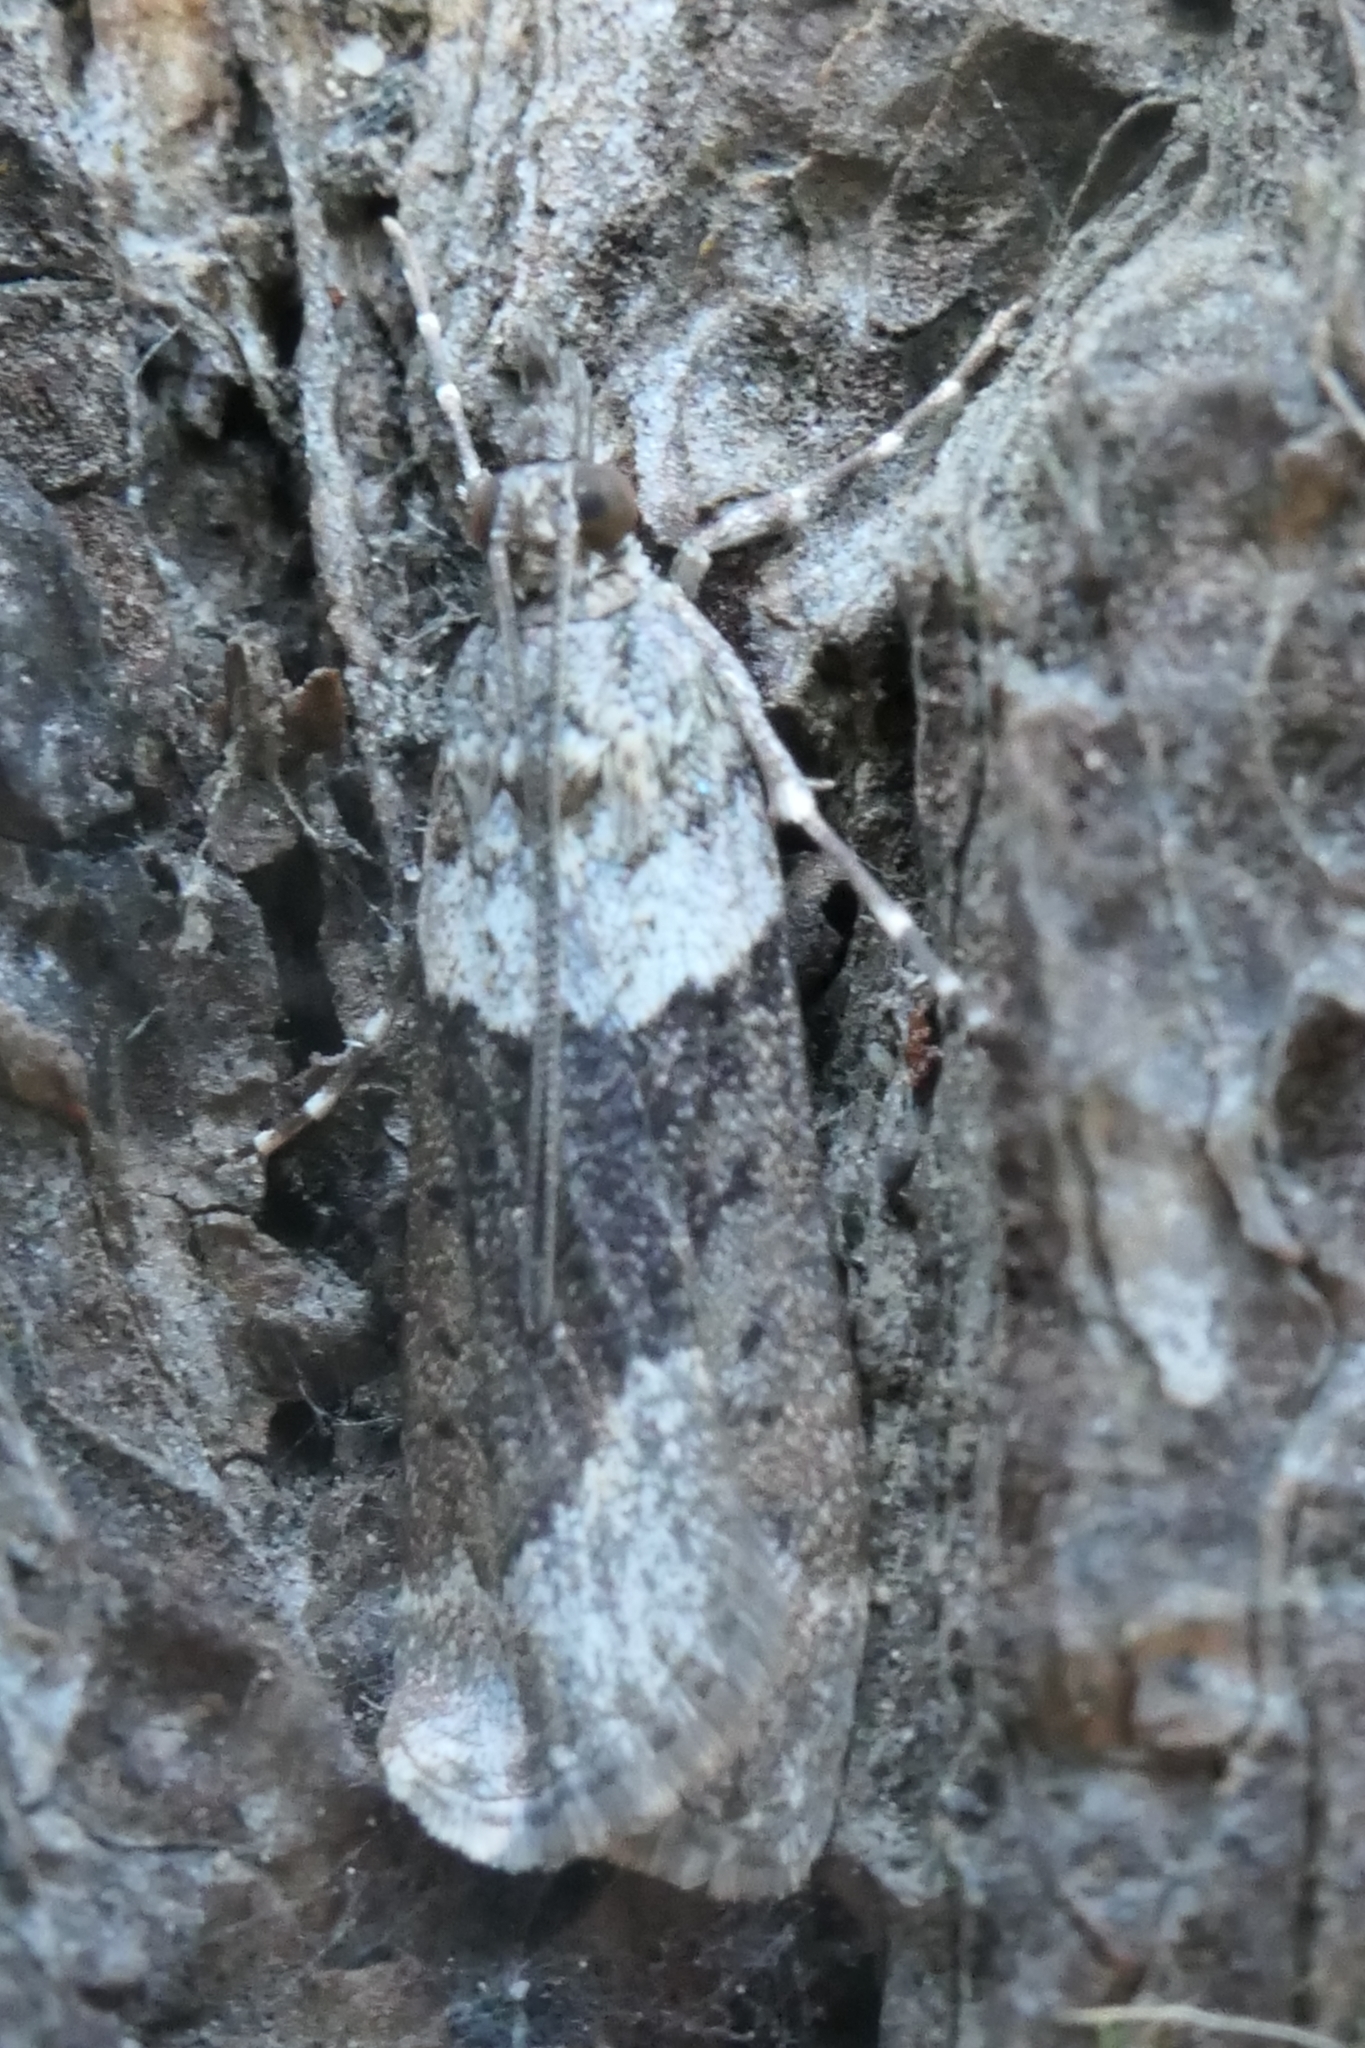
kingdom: Animalia
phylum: Arthropoda
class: Insecta
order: Lepidoptera
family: Crambidae
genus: Eudonia
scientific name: Eudonia submarginalis
